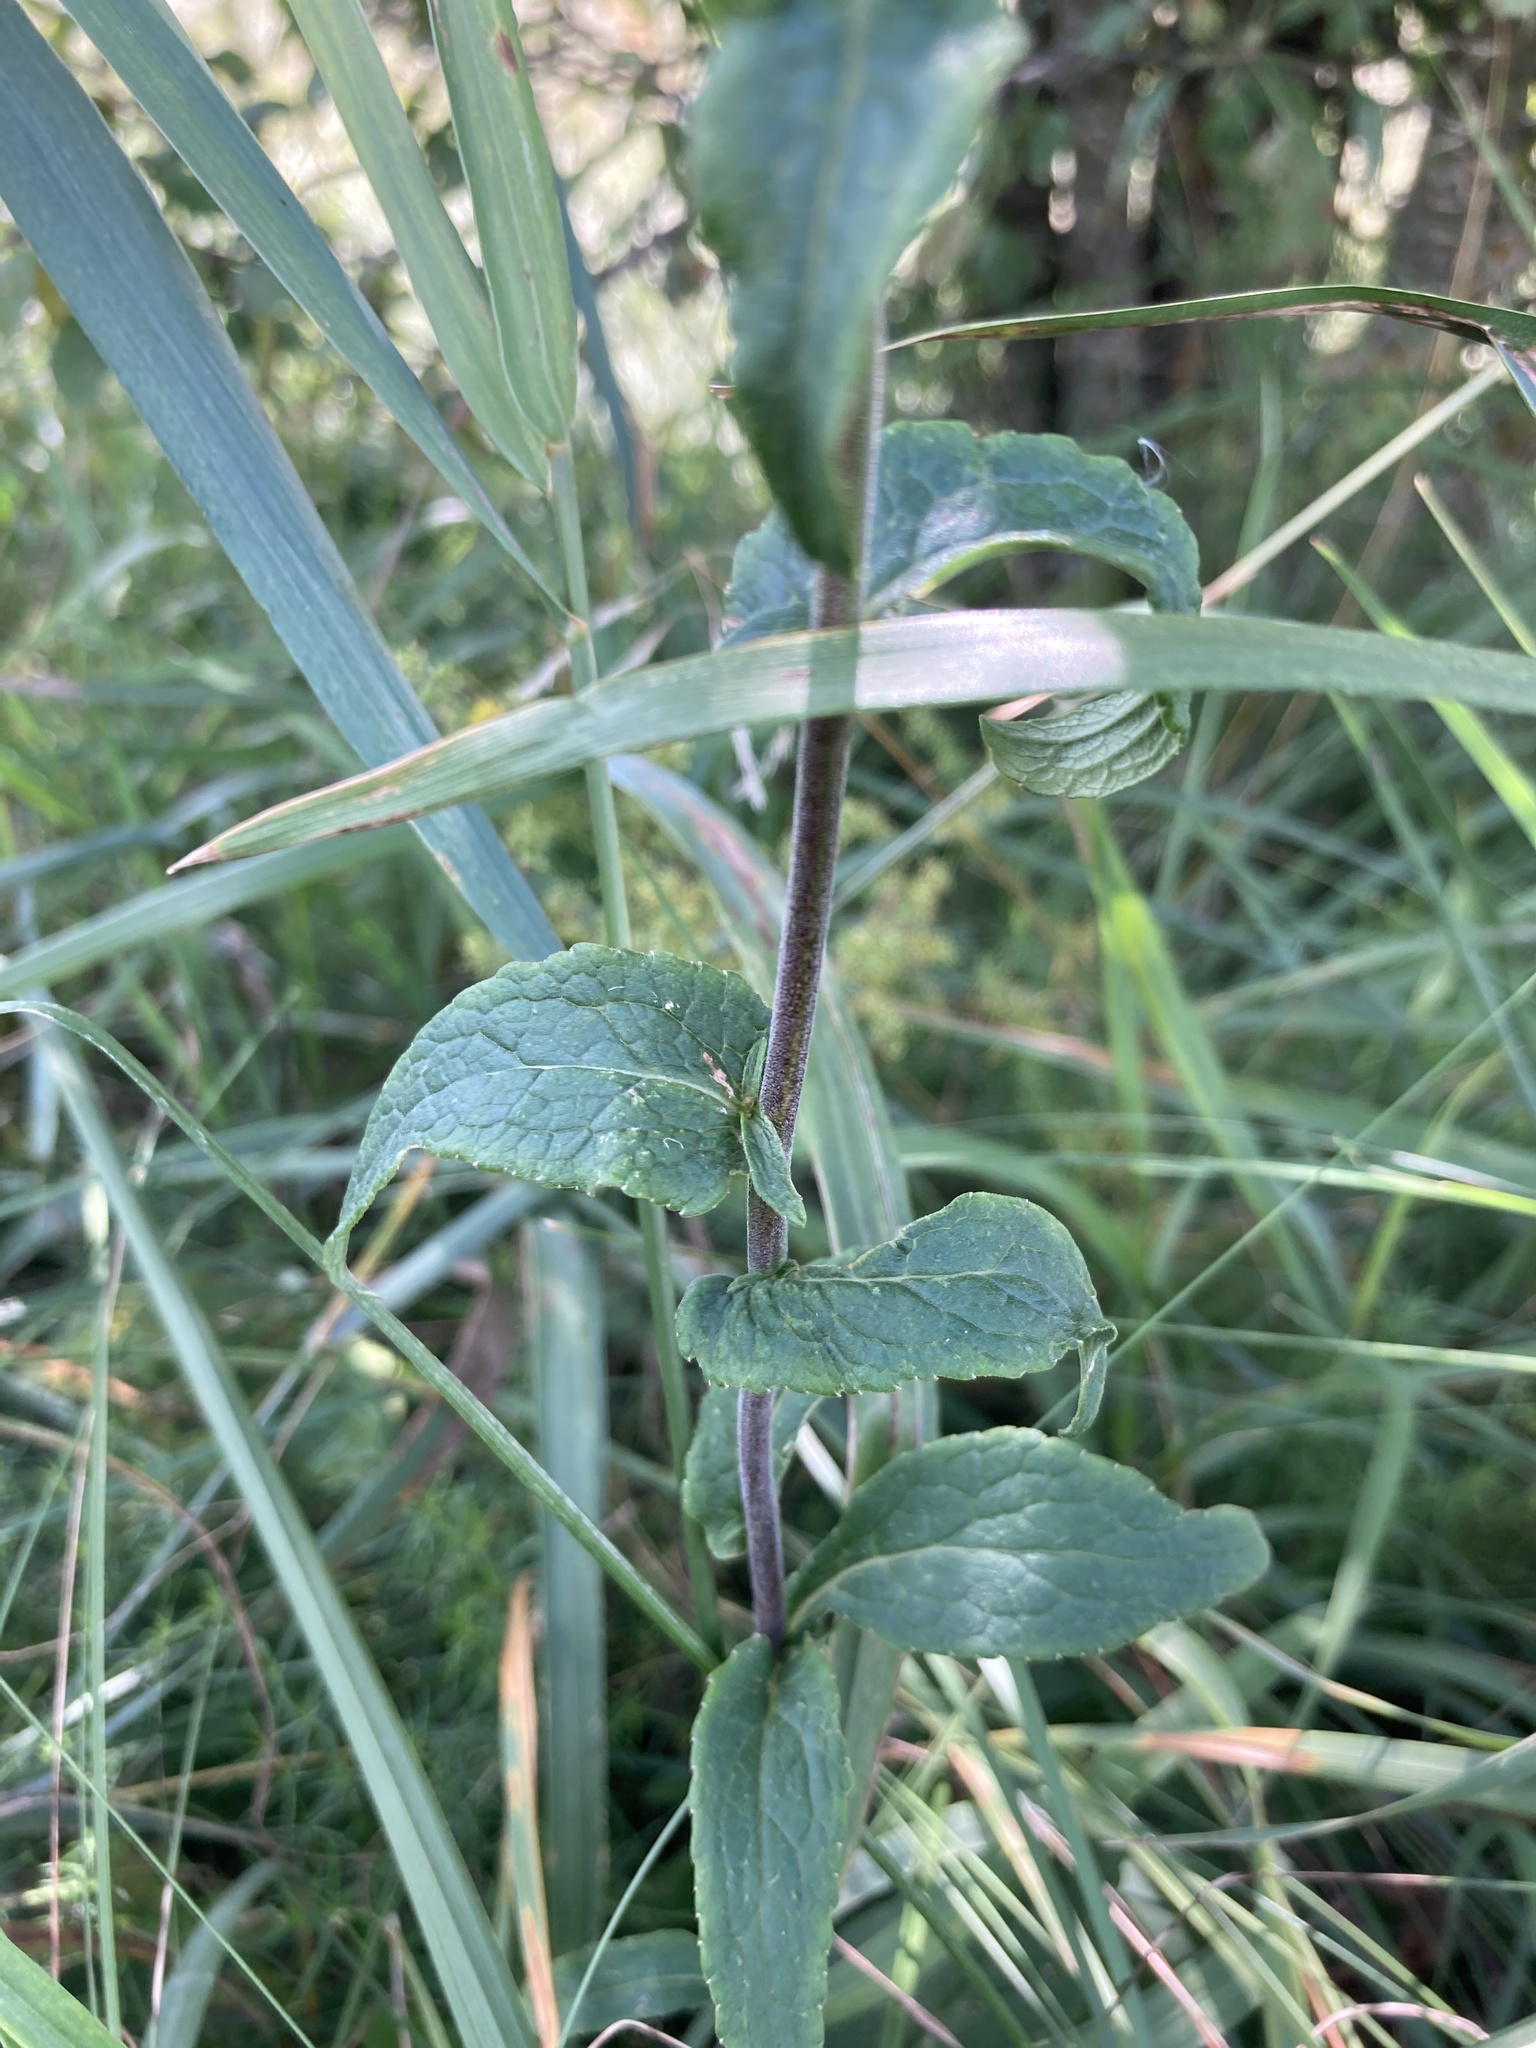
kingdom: Plantae
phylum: Tracheophyta
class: Magnoliopsida
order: Asterales
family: Campanulaceae
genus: Campanula
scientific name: Campanula bononiensis
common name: Pale bellflower
